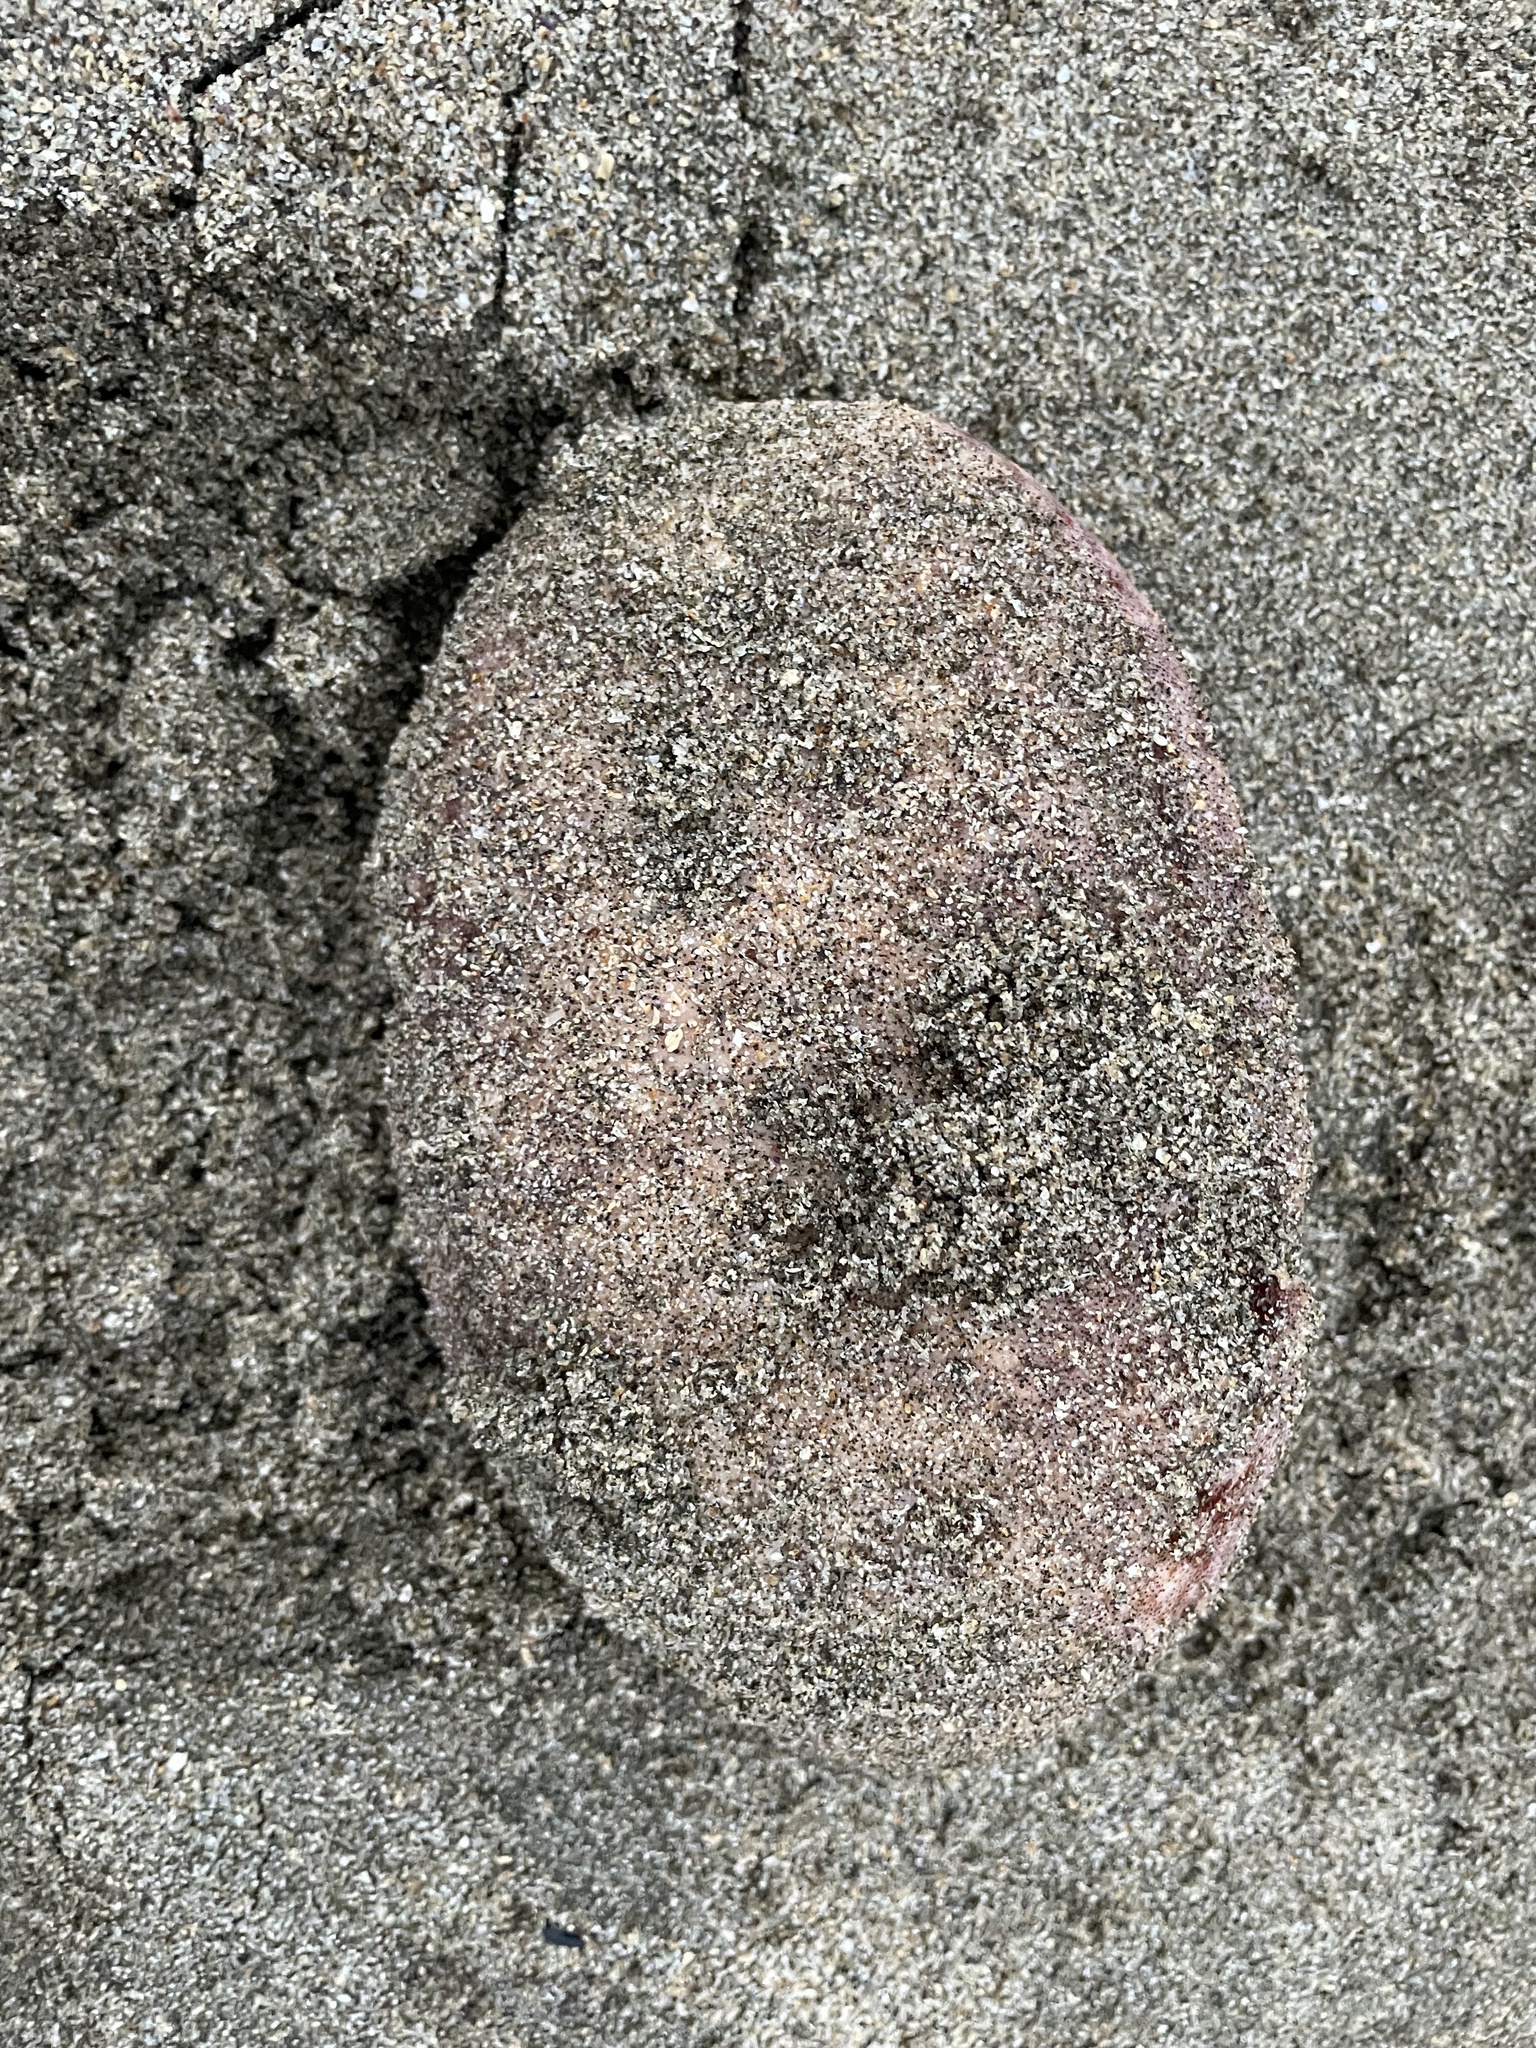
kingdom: Animalia
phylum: Mollusca
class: Polyplacophora
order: Chitonida
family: Acanthochitonidae
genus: Cryptochiton
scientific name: Cryptochiton stelleri
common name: Giant pacific chiton
